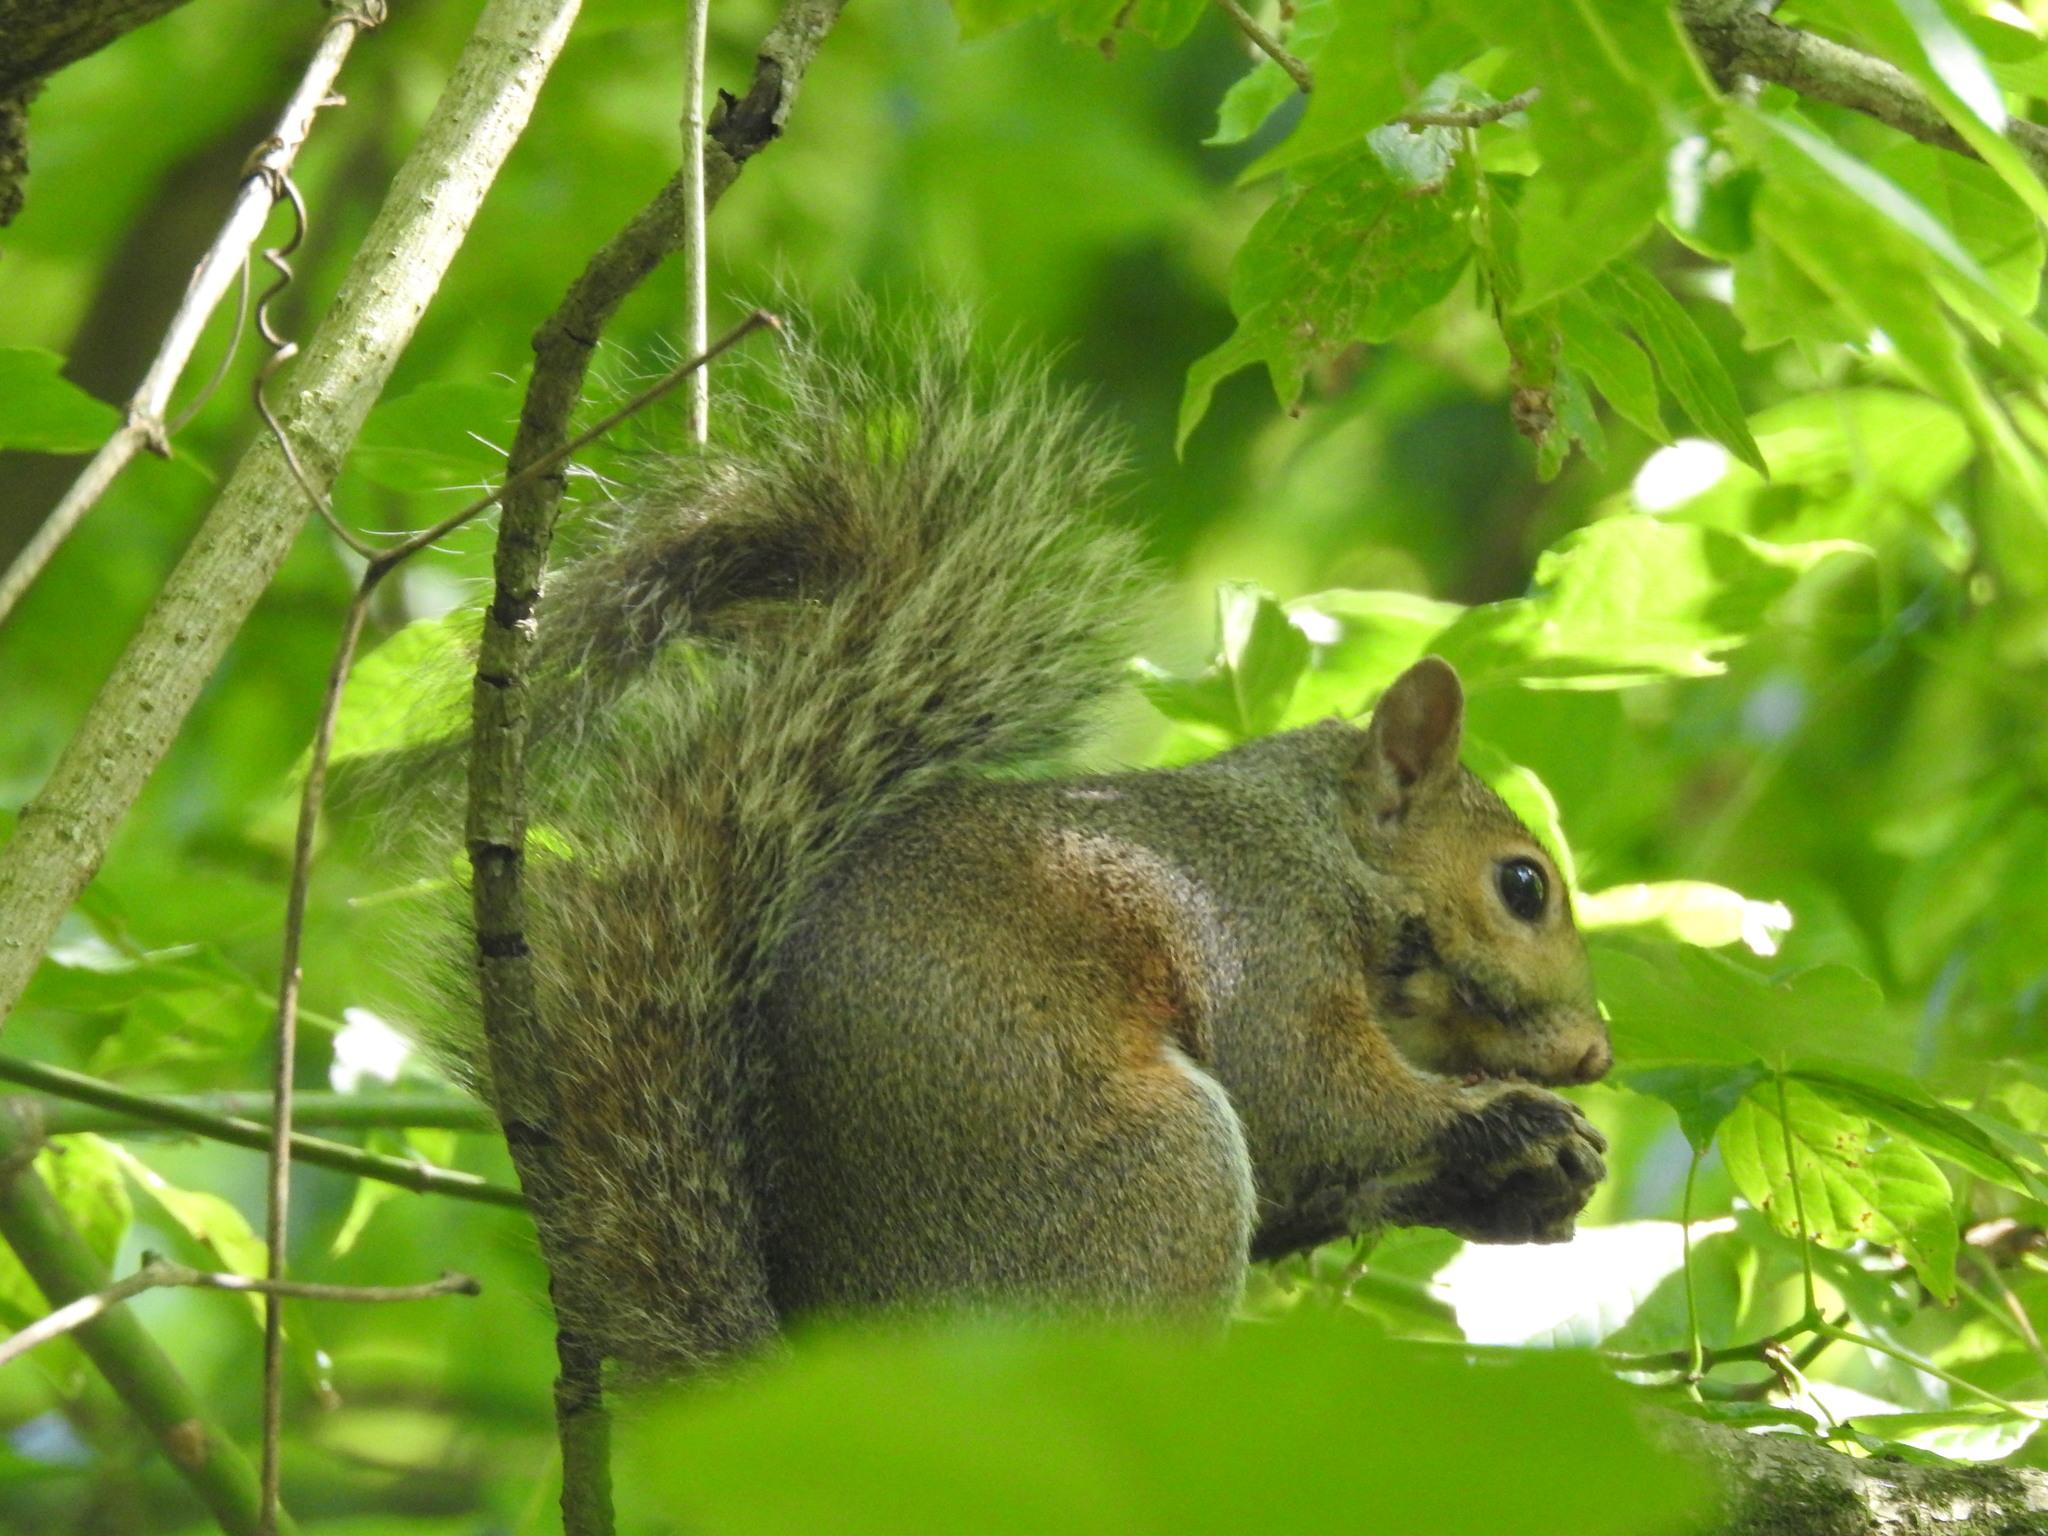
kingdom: Animalia
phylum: Chordata
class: Mammalia
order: Rodentia
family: Sciuridae
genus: Sciurus
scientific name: Sciurus carolinensis
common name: Eastern gray squirrel
